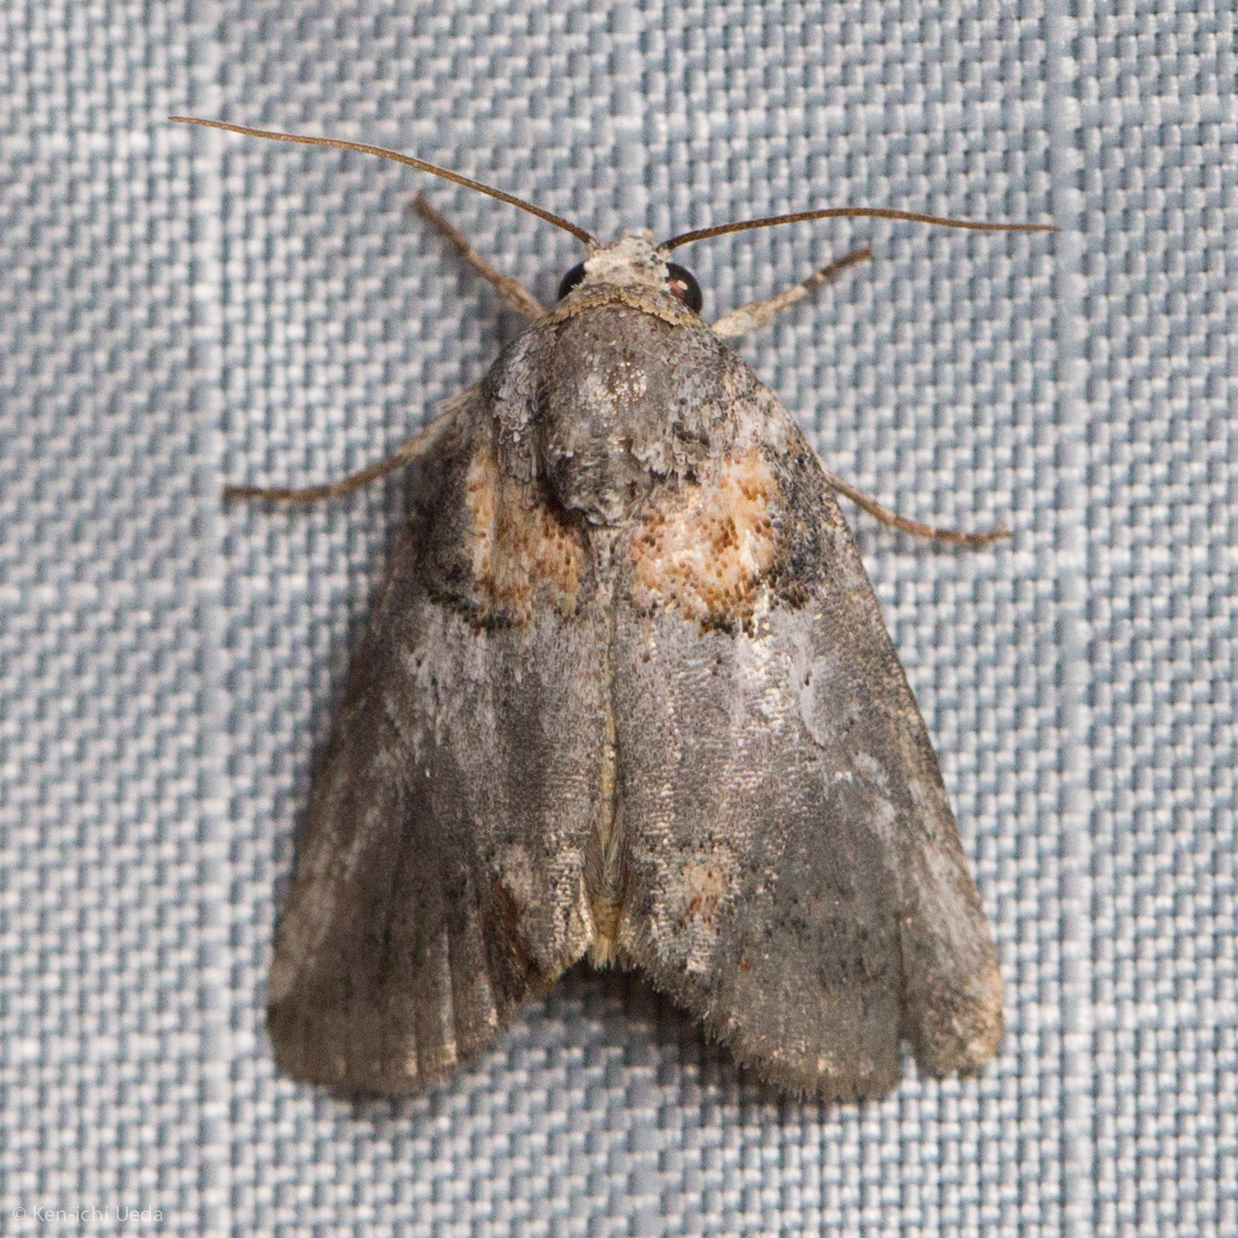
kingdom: Animalia
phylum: Arthropoda
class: Insecta
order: Lepidoptera
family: Noctuidae
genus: Aleptina
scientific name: Aleptina clinopetes
